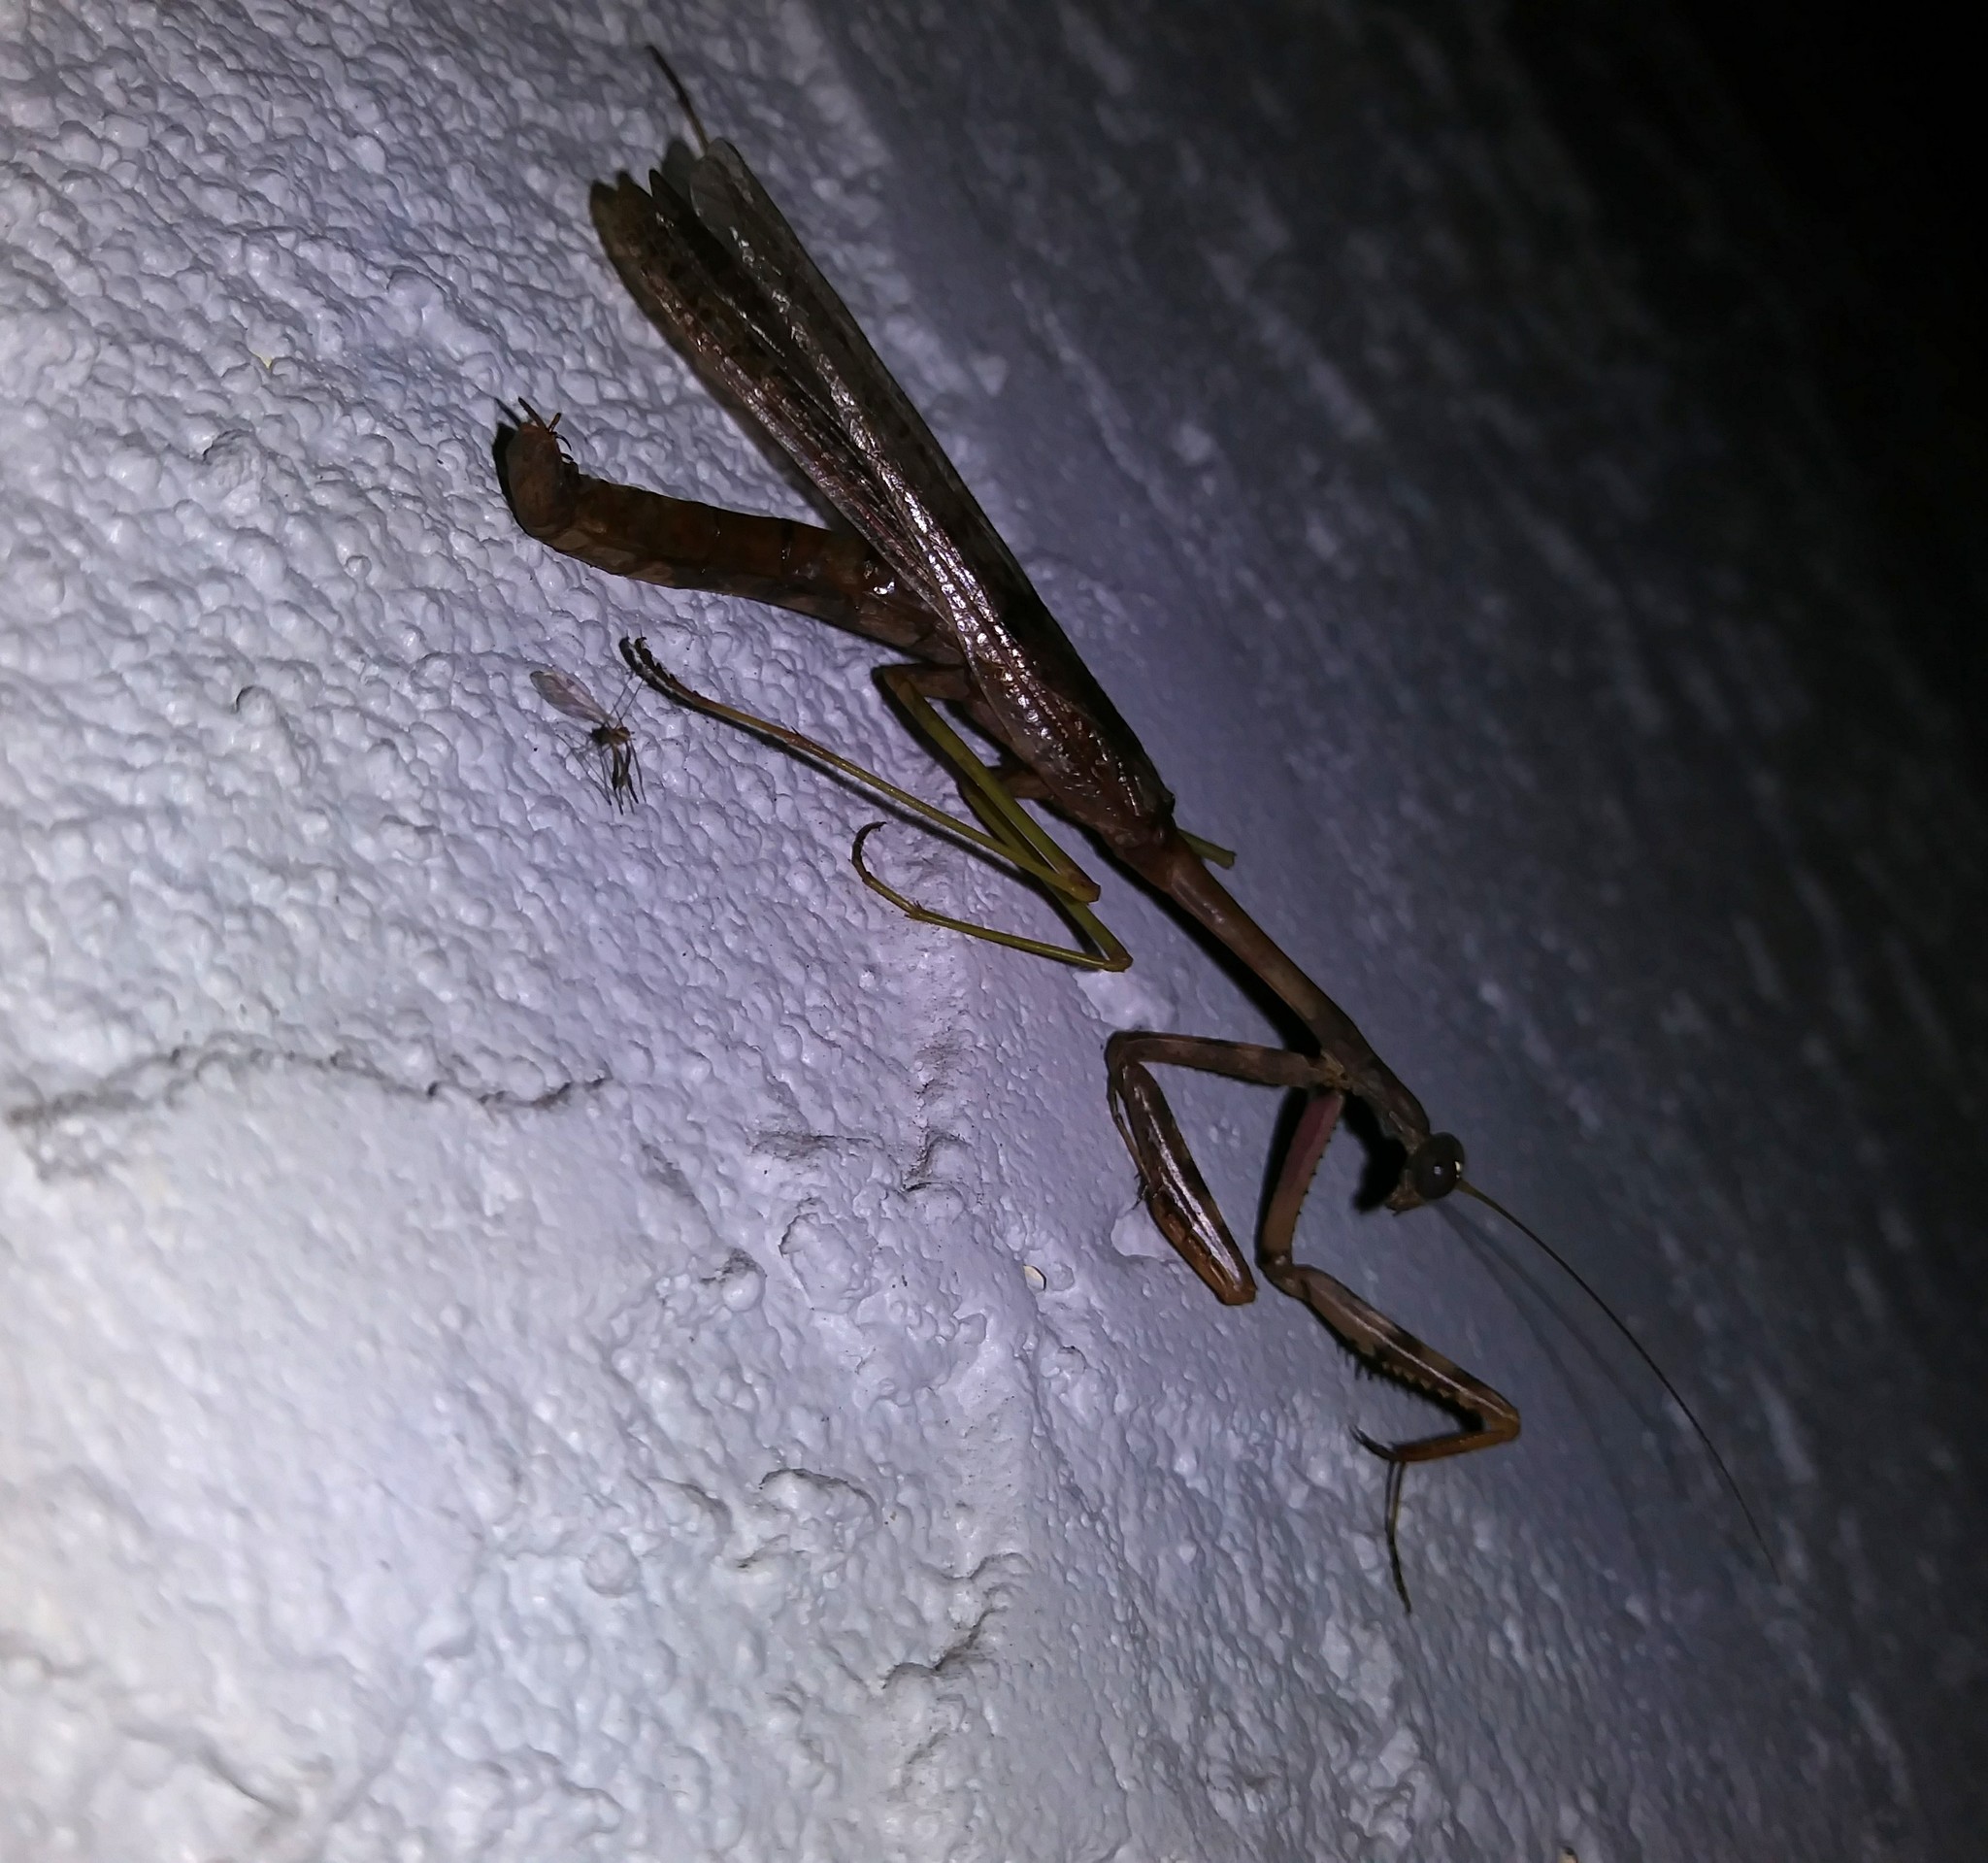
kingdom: Animalia
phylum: Arthropoda
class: Insecta
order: Mantodea
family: Mantidae
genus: Stagmomantis
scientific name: Stagmomantis carolina
